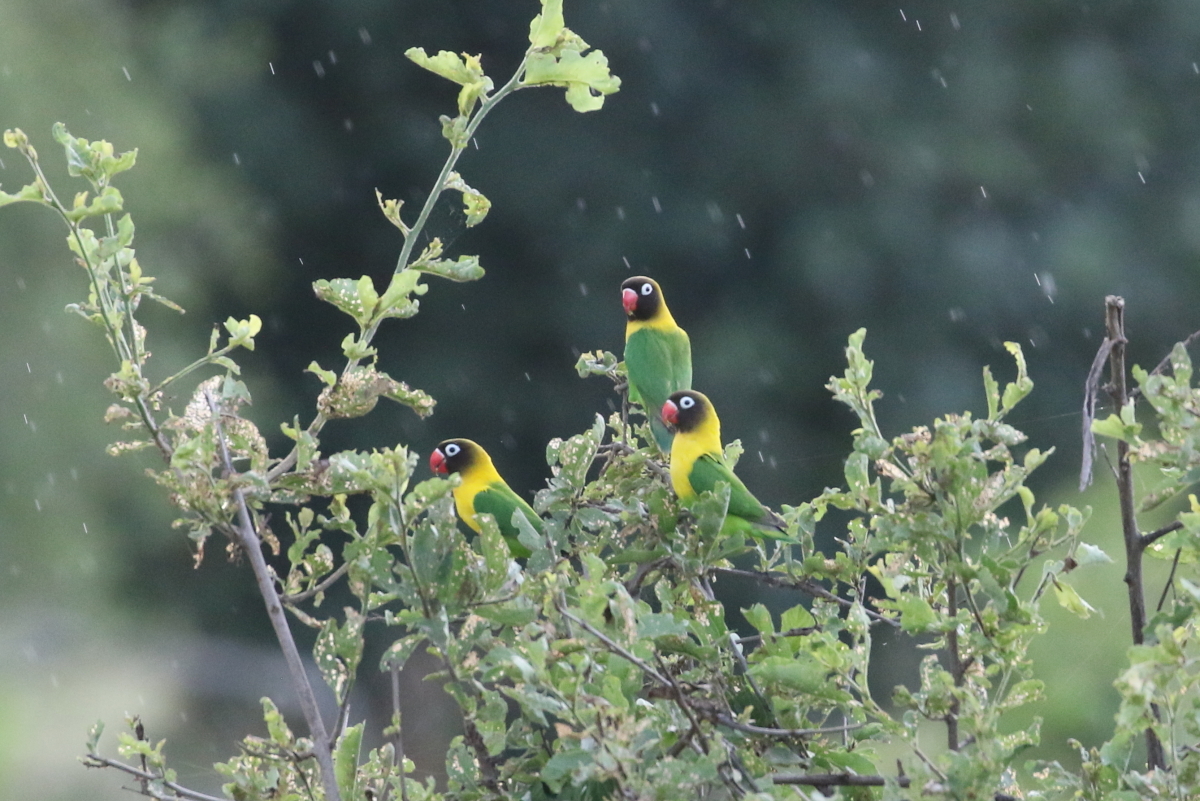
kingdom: Animalia
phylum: Chordata
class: Aves
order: Psittaciformes
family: Psittacidae
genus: Agapornis
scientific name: Agapornis personatus
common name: Yellow-collared lovebird
